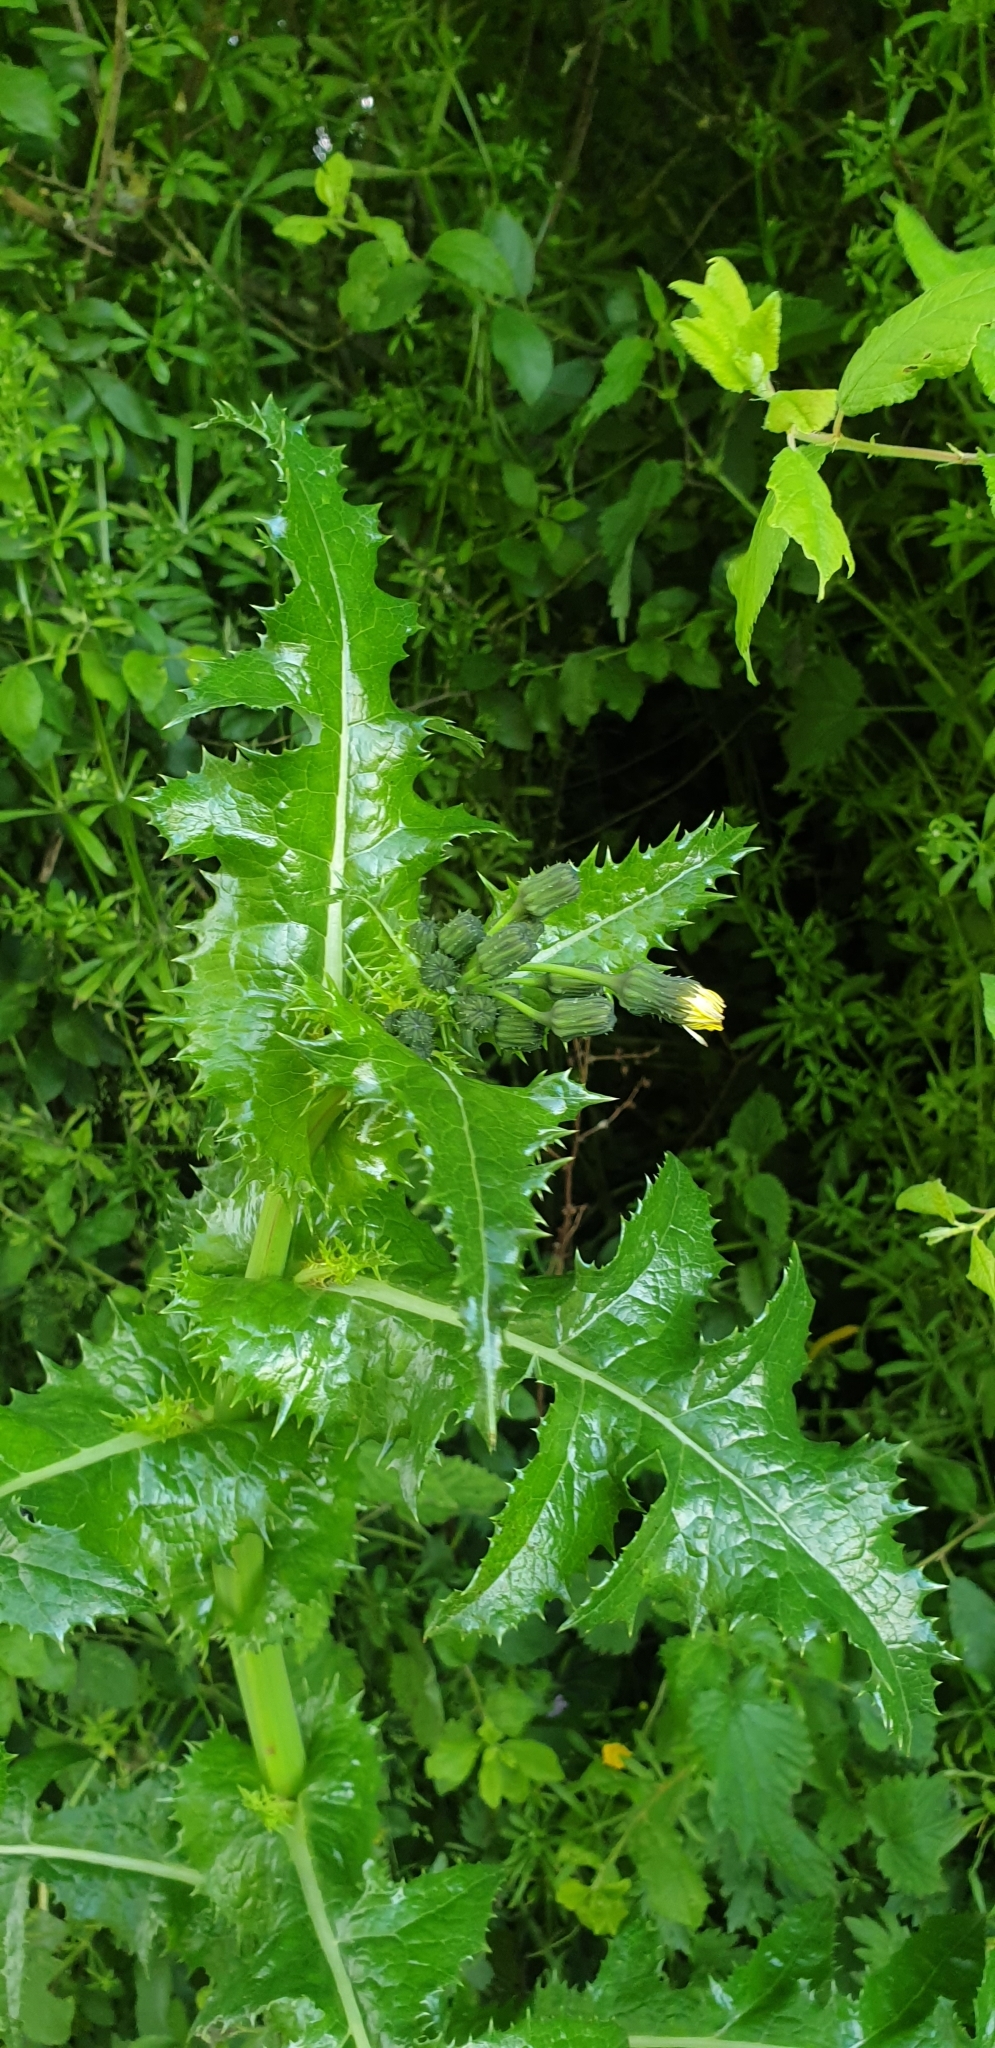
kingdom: Plantae
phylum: Tracheophyta
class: Magnoliopsida
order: Asterales
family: Asteraceae
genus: Sonchus
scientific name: Sonchus asper
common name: Prickly sow-thistle
